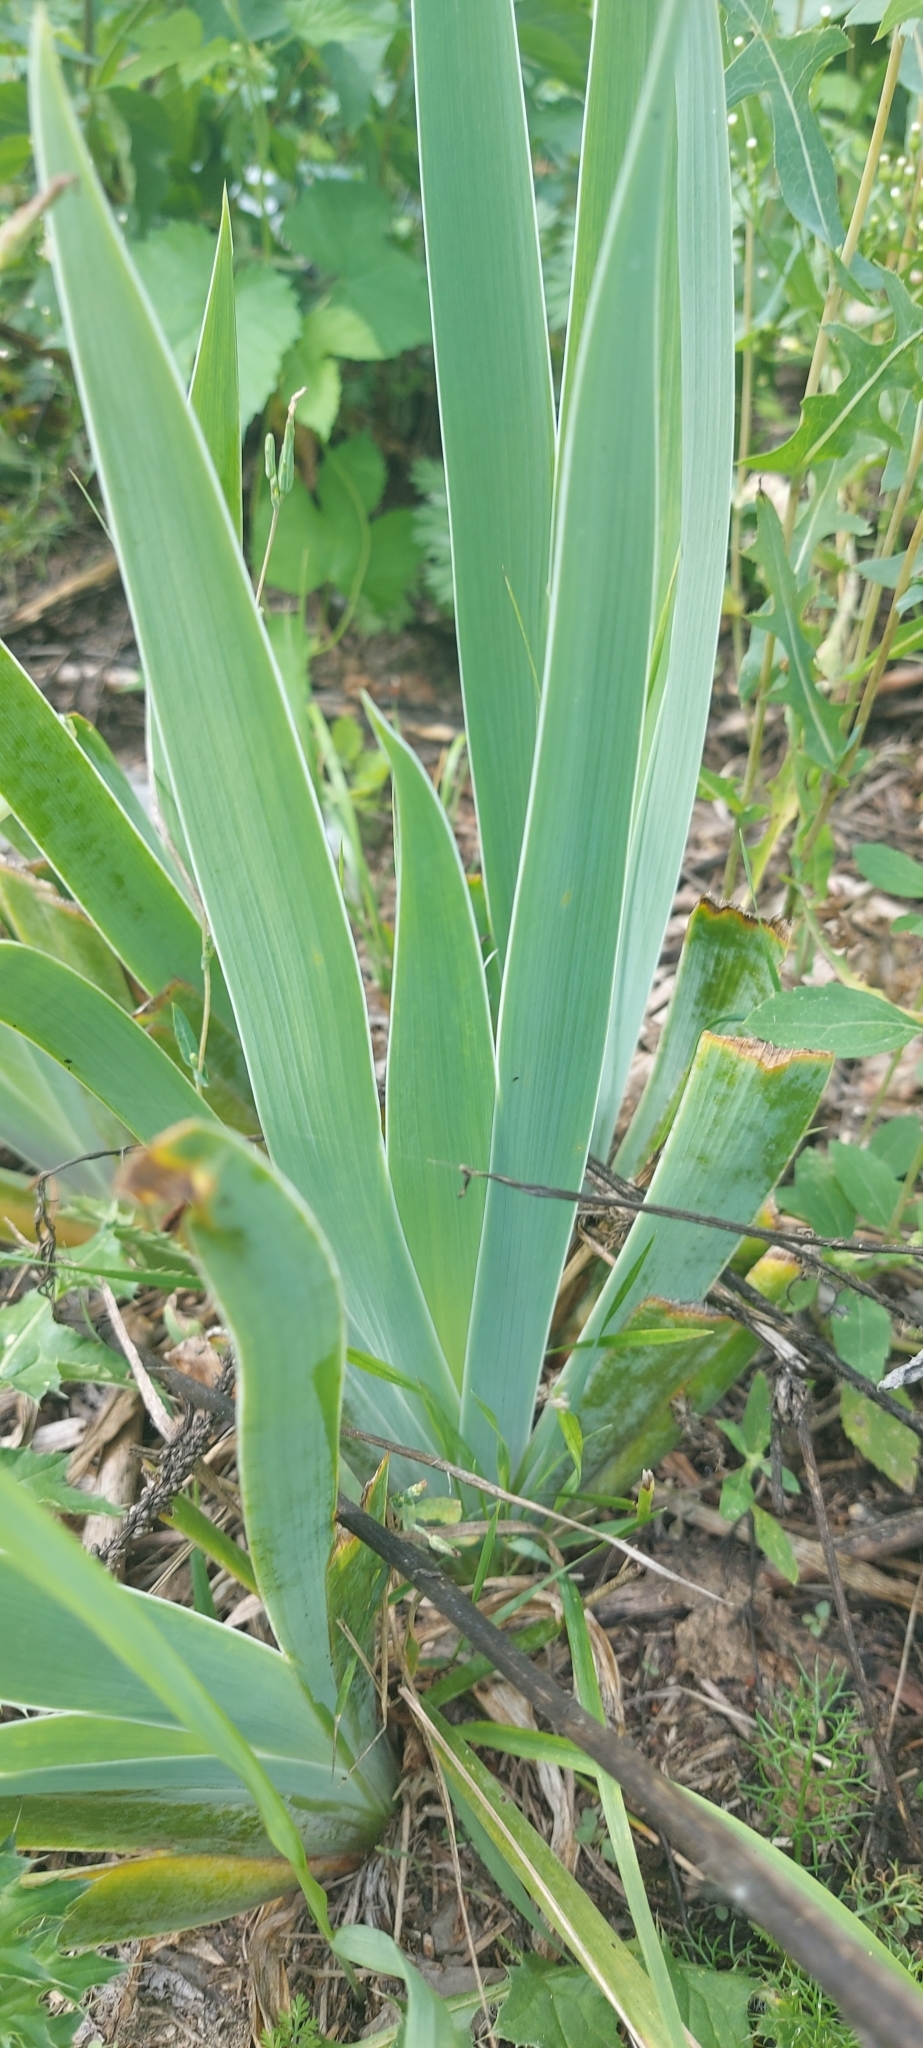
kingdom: Plantae
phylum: Tracheophyta
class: Liliopsida
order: Asparagales
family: Iridaceae
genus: Iris
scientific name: Iris hybrida
